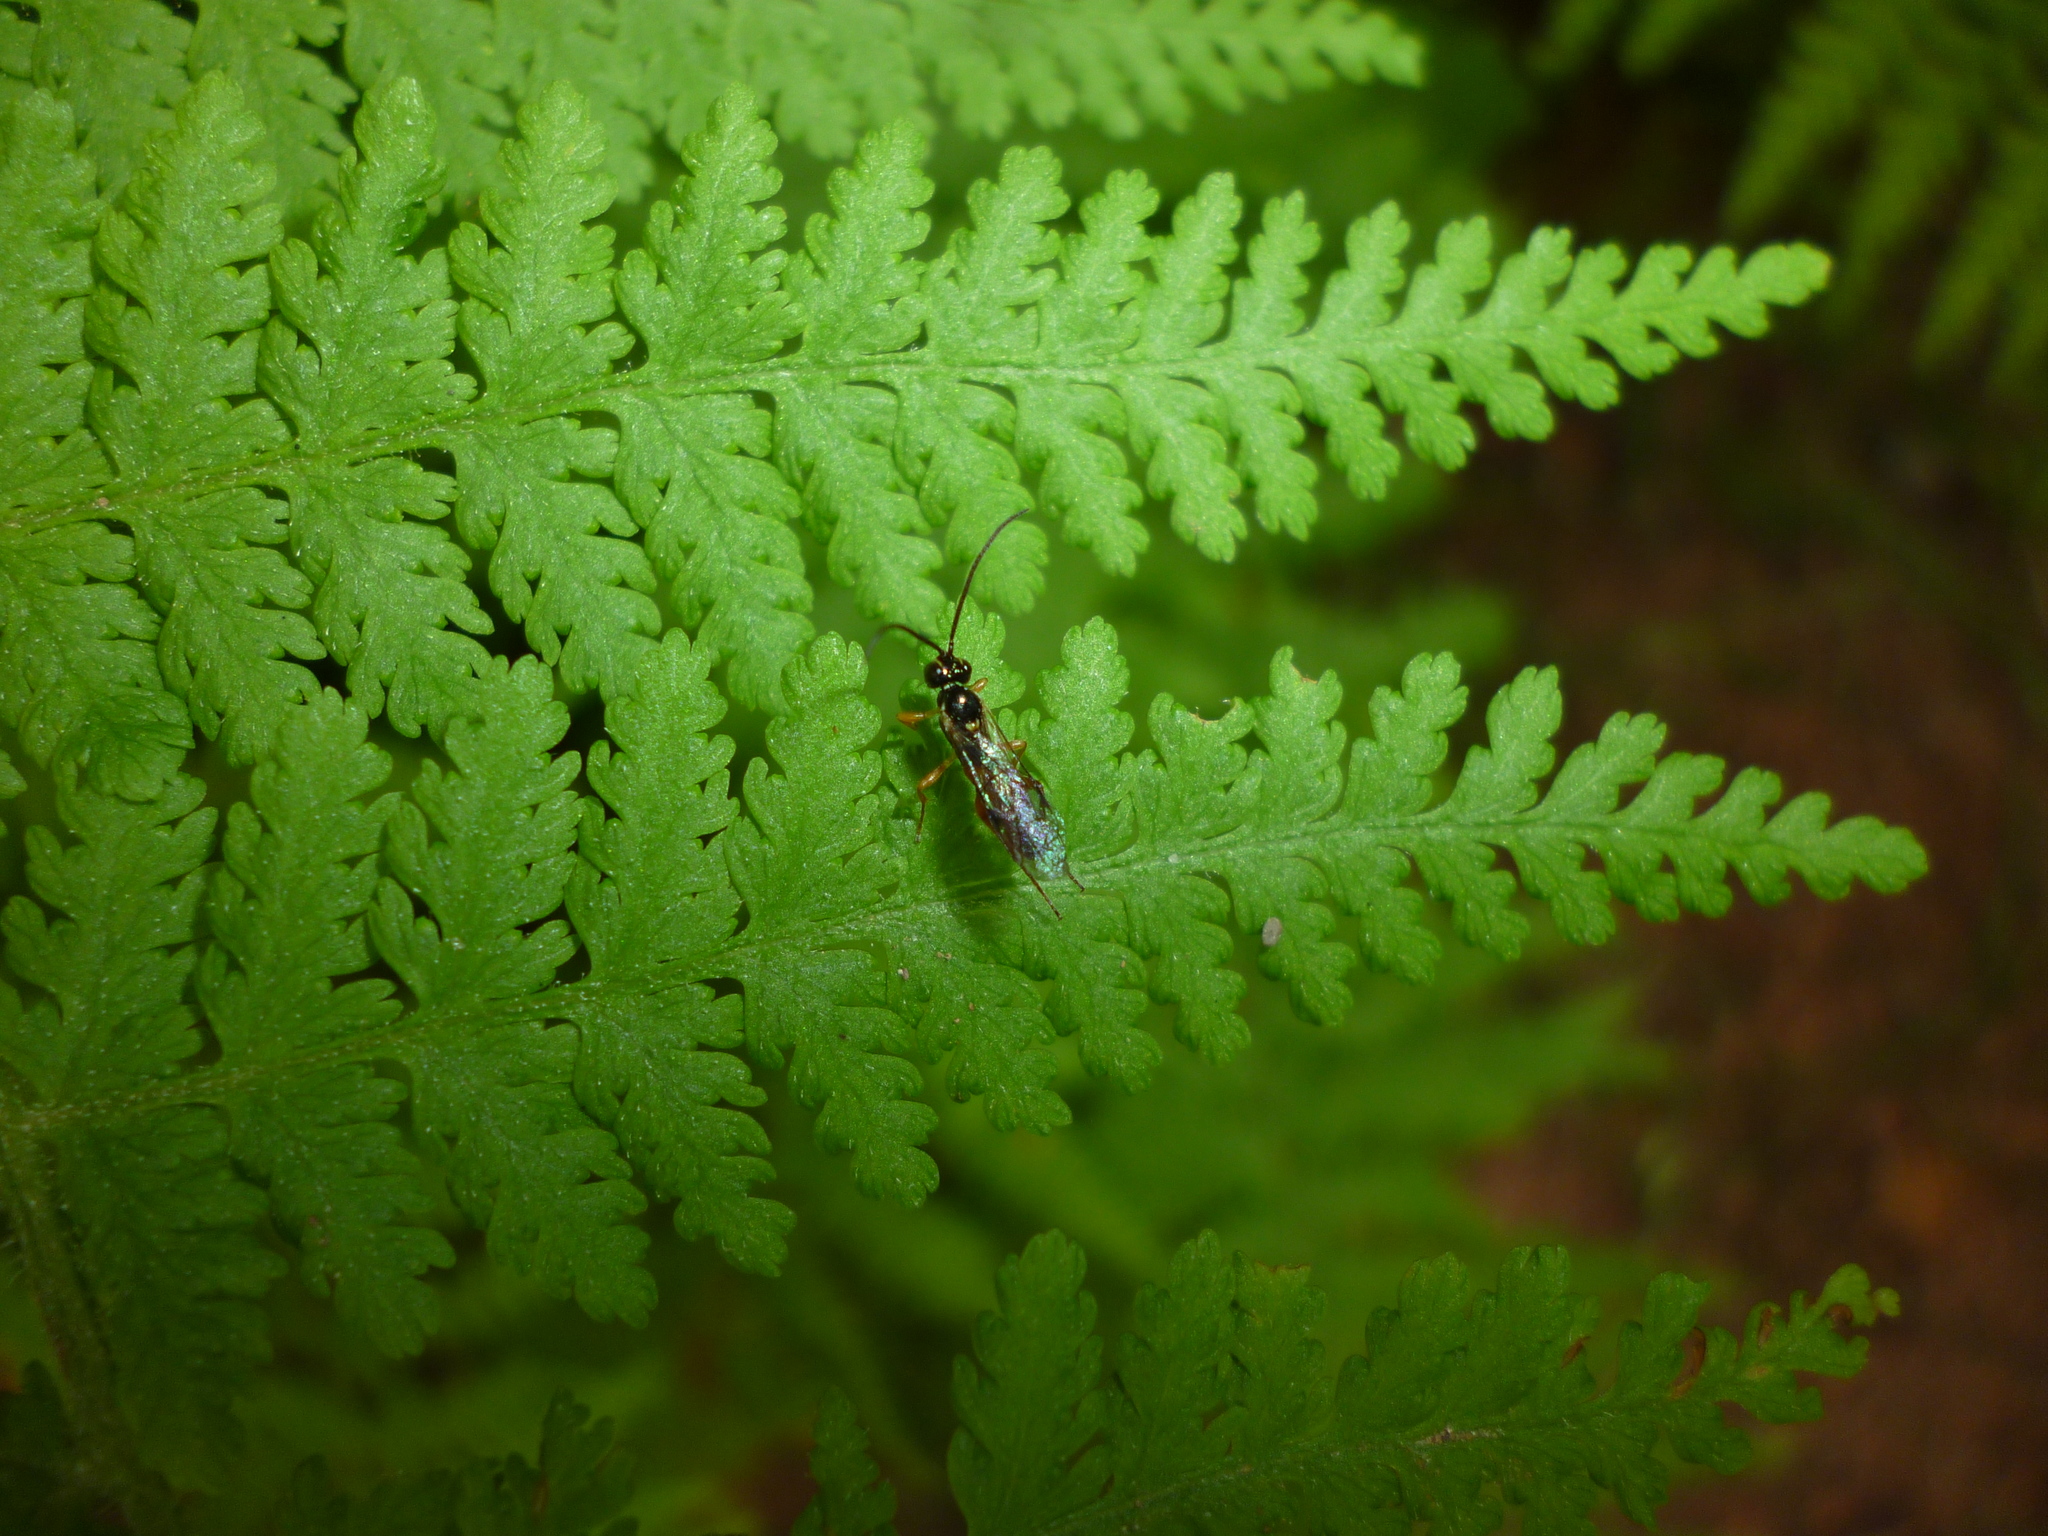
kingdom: Plantae
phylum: Tracheophyta
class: Polypodiopsida
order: Polypodiales
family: Dennstaedtiaceae
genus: Sitobolium
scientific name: Sitobolium punctilobum
